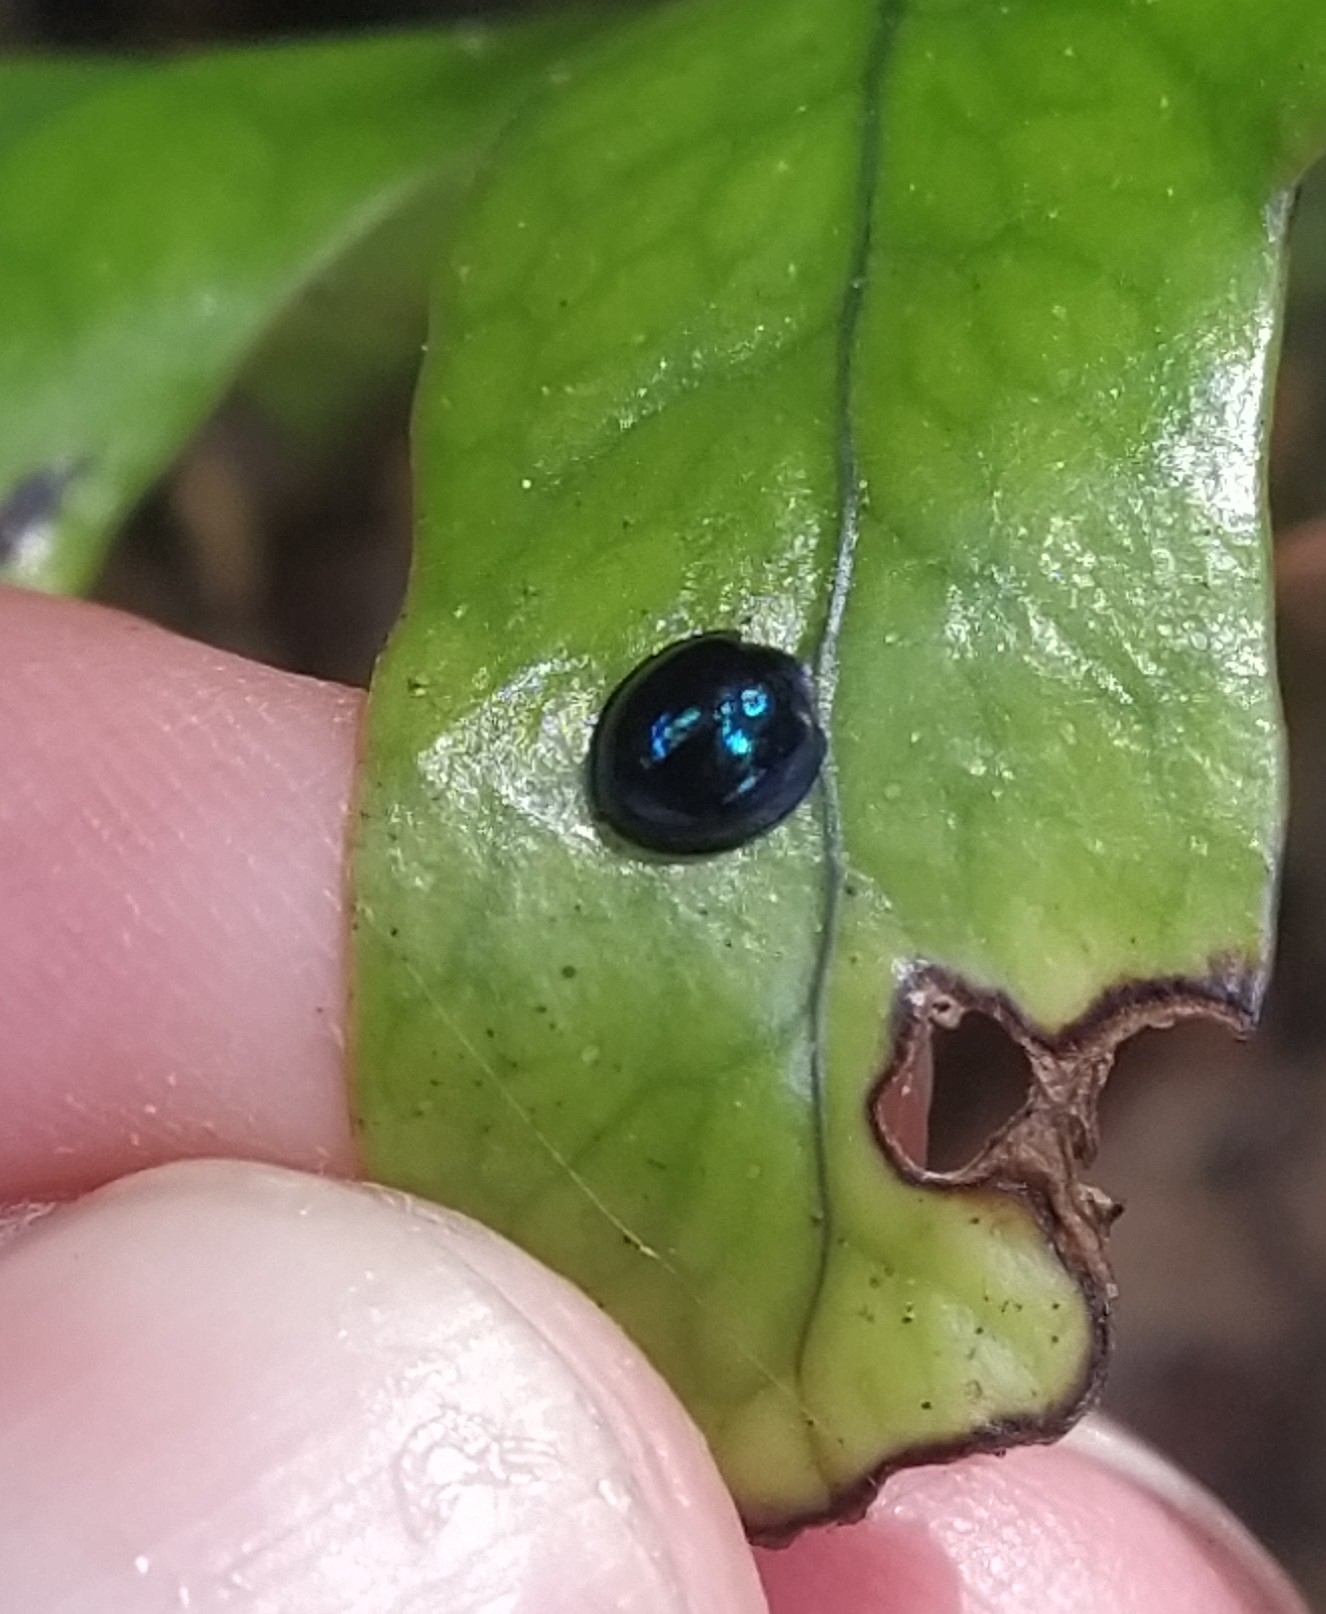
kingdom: Animalia
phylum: Arthropoda
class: Insecta
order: Coleoptera
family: Coccinellidae
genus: Halmus
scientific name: Halmus chalybeus
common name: Steel blue ladybird beetle
